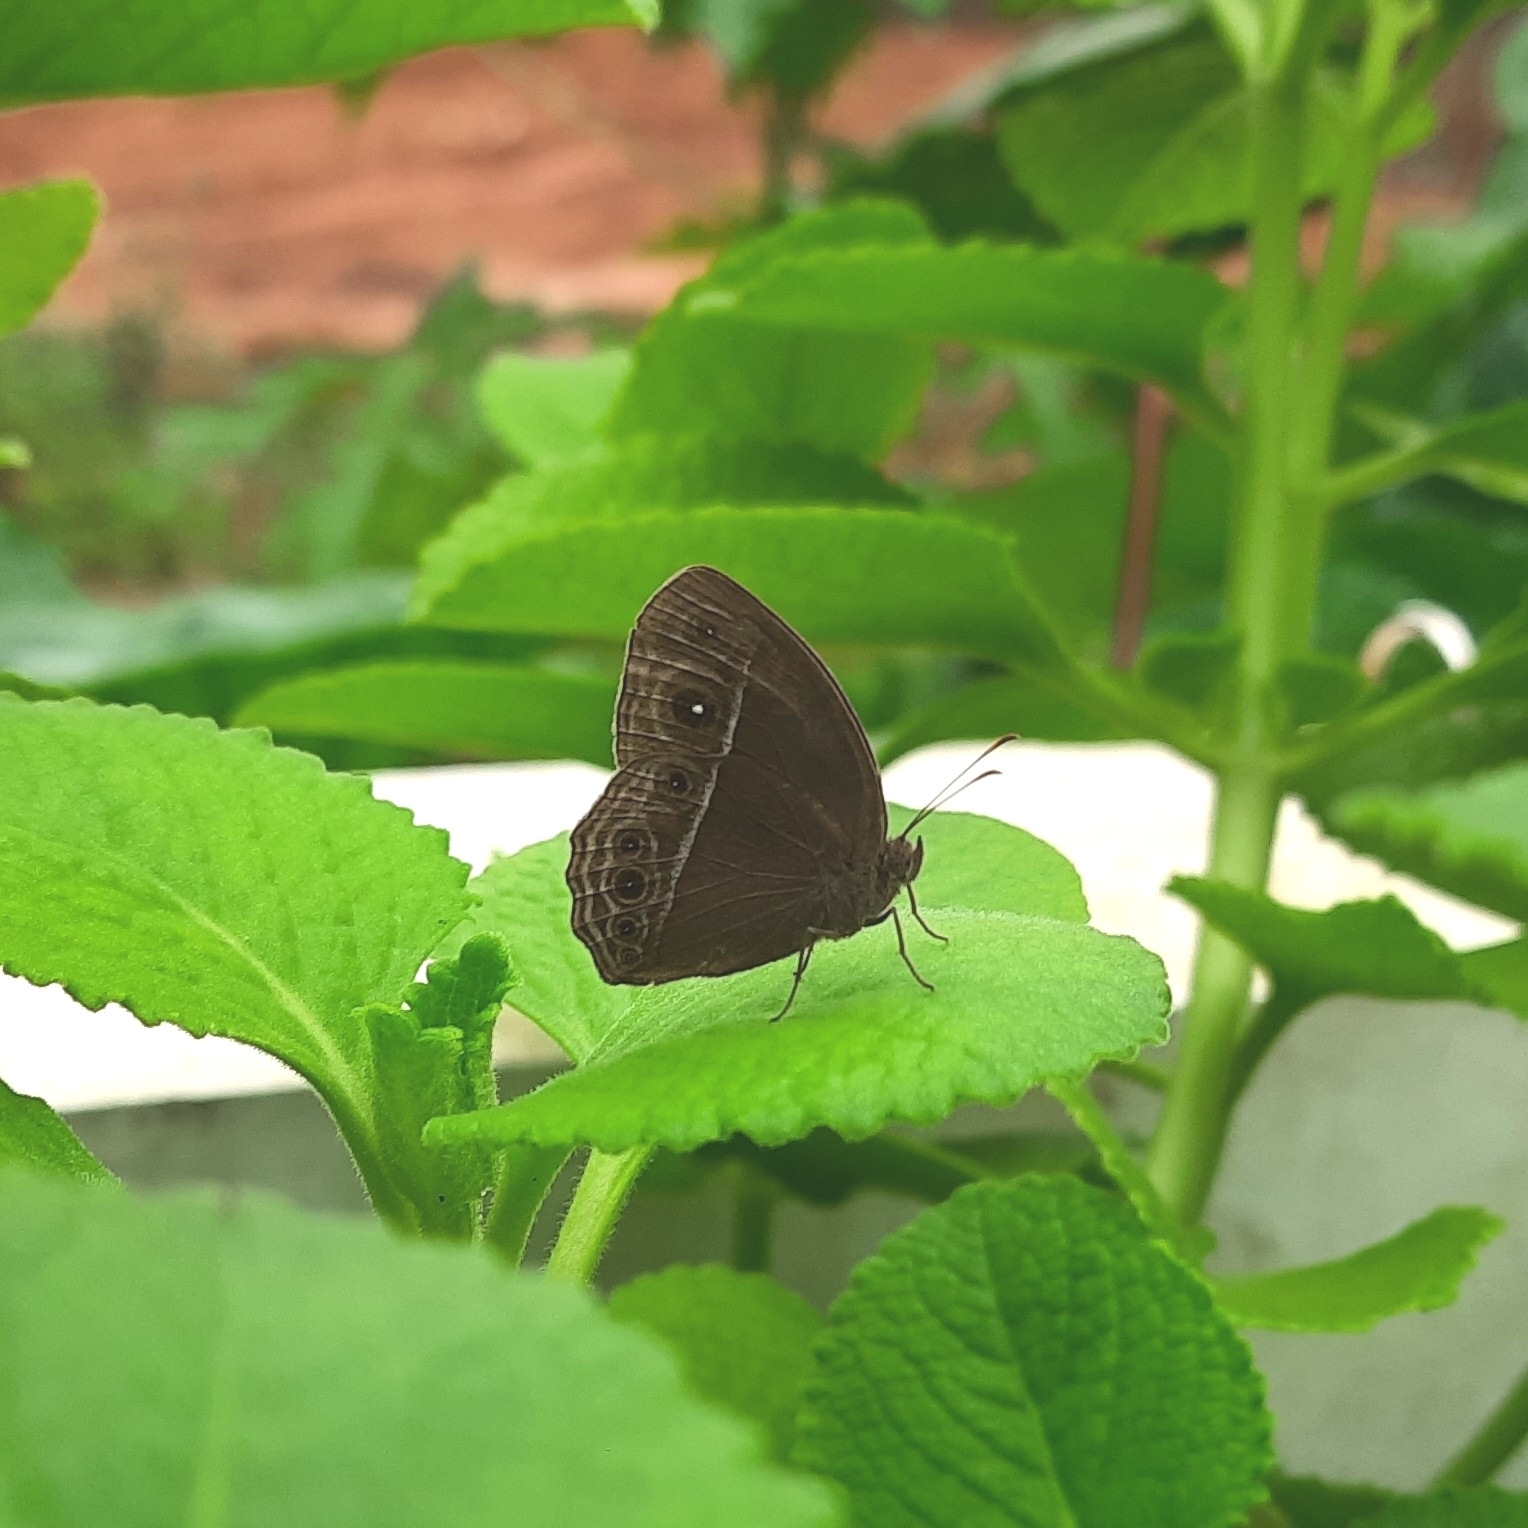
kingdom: Animalia
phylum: Arthropoda
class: Insecta
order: Lepidoptera
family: Nymphalidae
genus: Mycalesis
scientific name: Mycalesis perseus
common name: Dingy bushbrown
